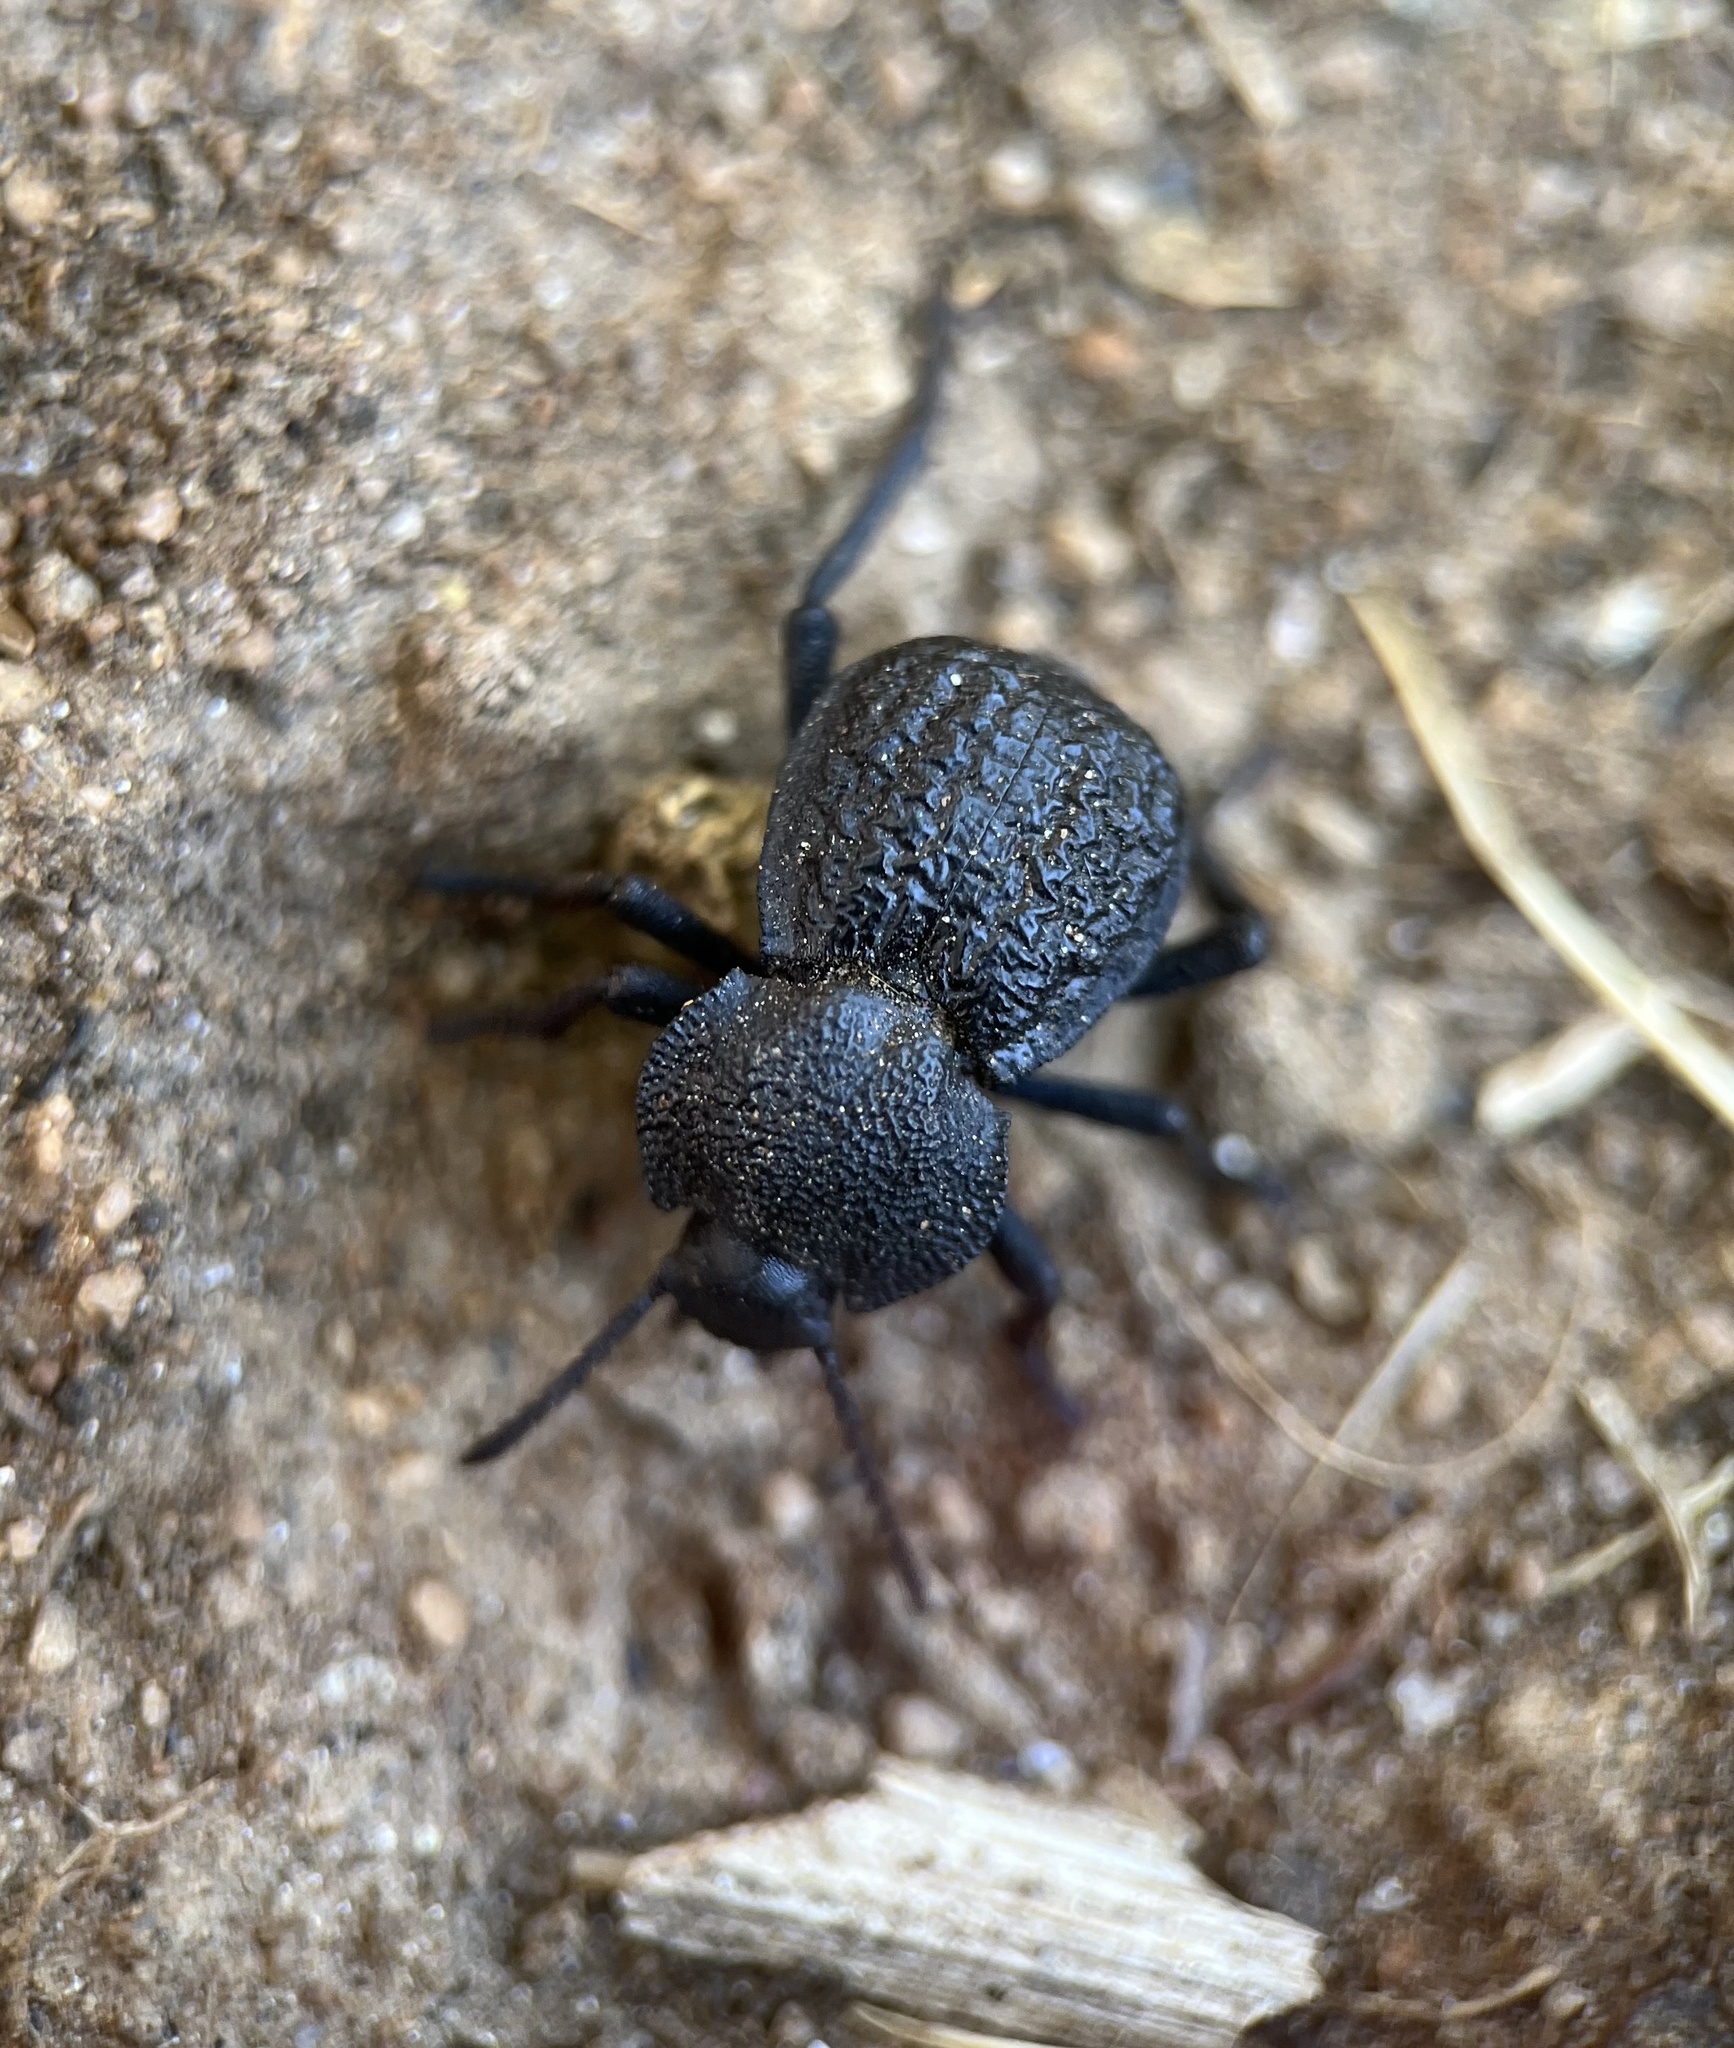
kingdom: Animalia
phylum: Arthropoda
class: Insecta
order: Coleoptera
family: Tenebrionidae
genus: Microschatia
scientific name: Microschatia inaequalis
